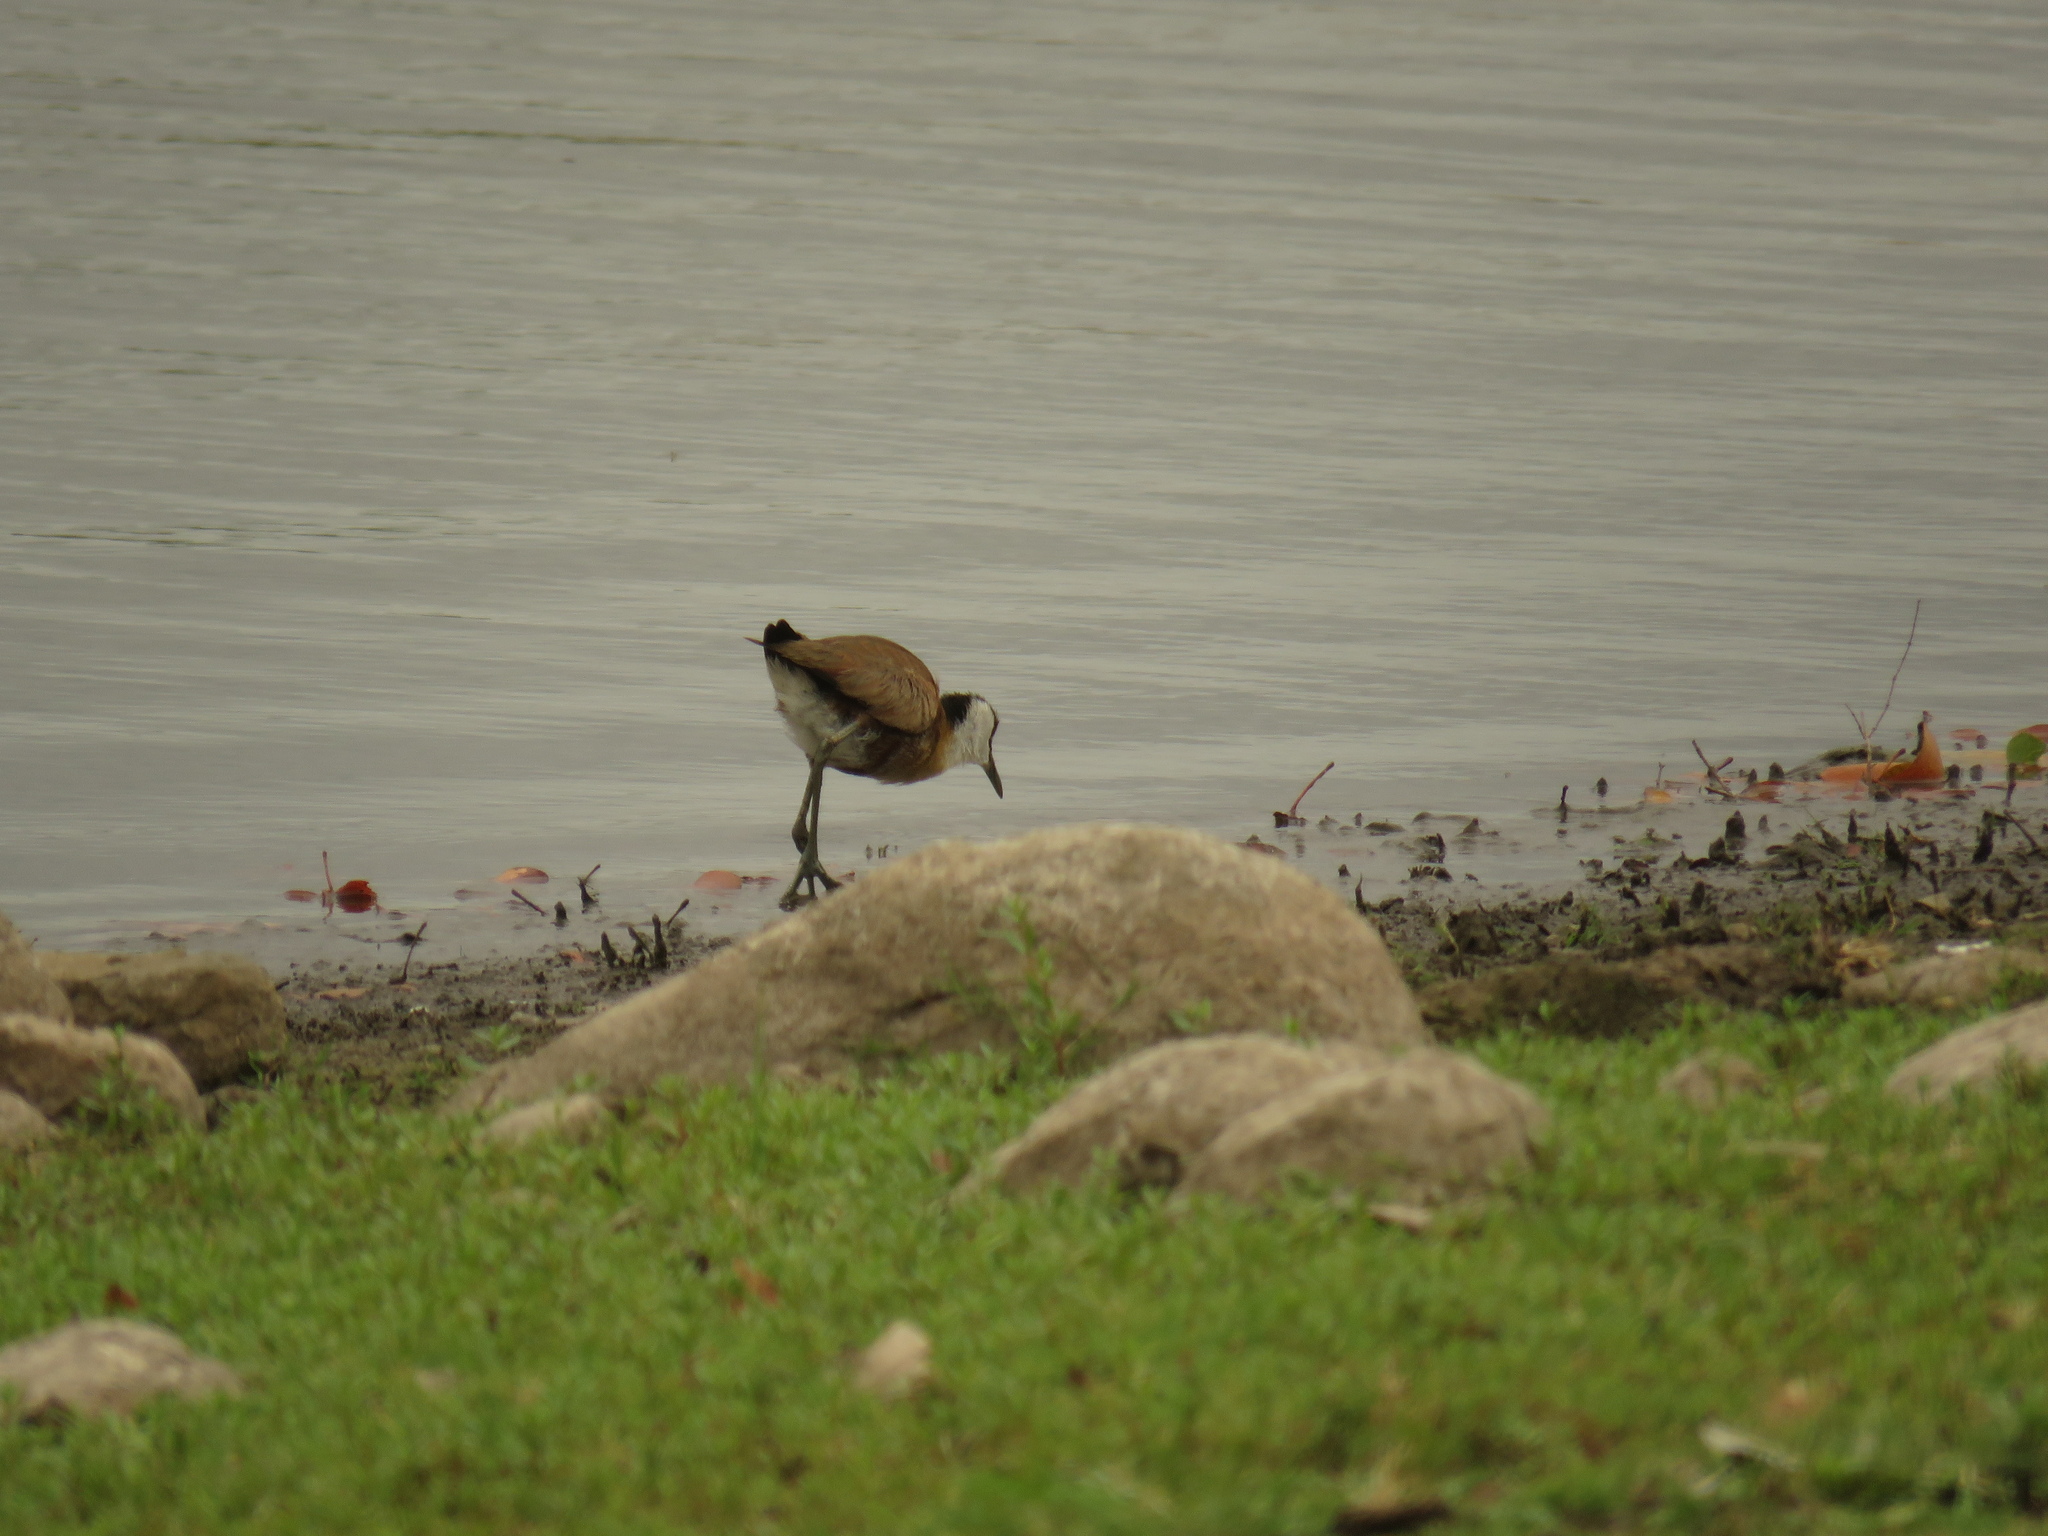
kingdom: Animalia
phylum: Chordata
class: Aves
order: Charadriiformes
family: Jacanidae
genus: Actophilornis
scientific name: Actophilornis africanus
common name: African jacana
